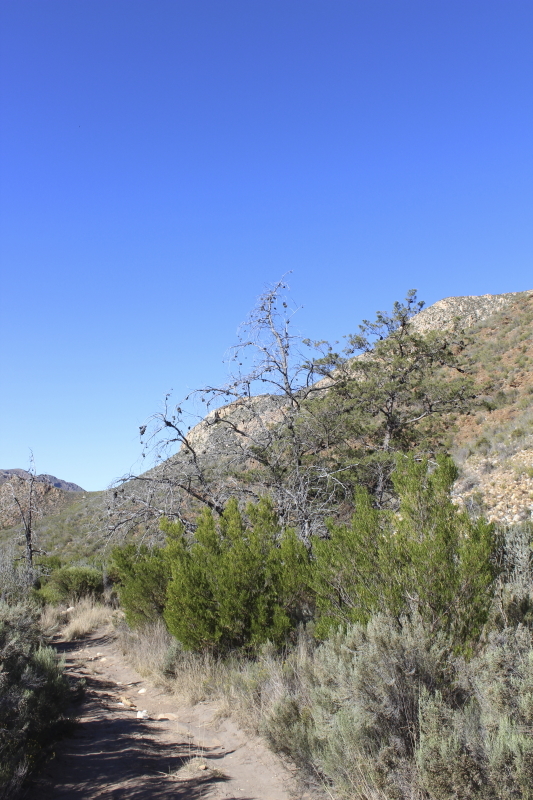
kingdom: Plantae
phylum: Tracheophyta
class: Pinopsida
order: Pinales
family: Cupressaceae
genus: Widdringtonia
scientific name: Widdringtonia schwarzii
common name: Baviaans cedar
